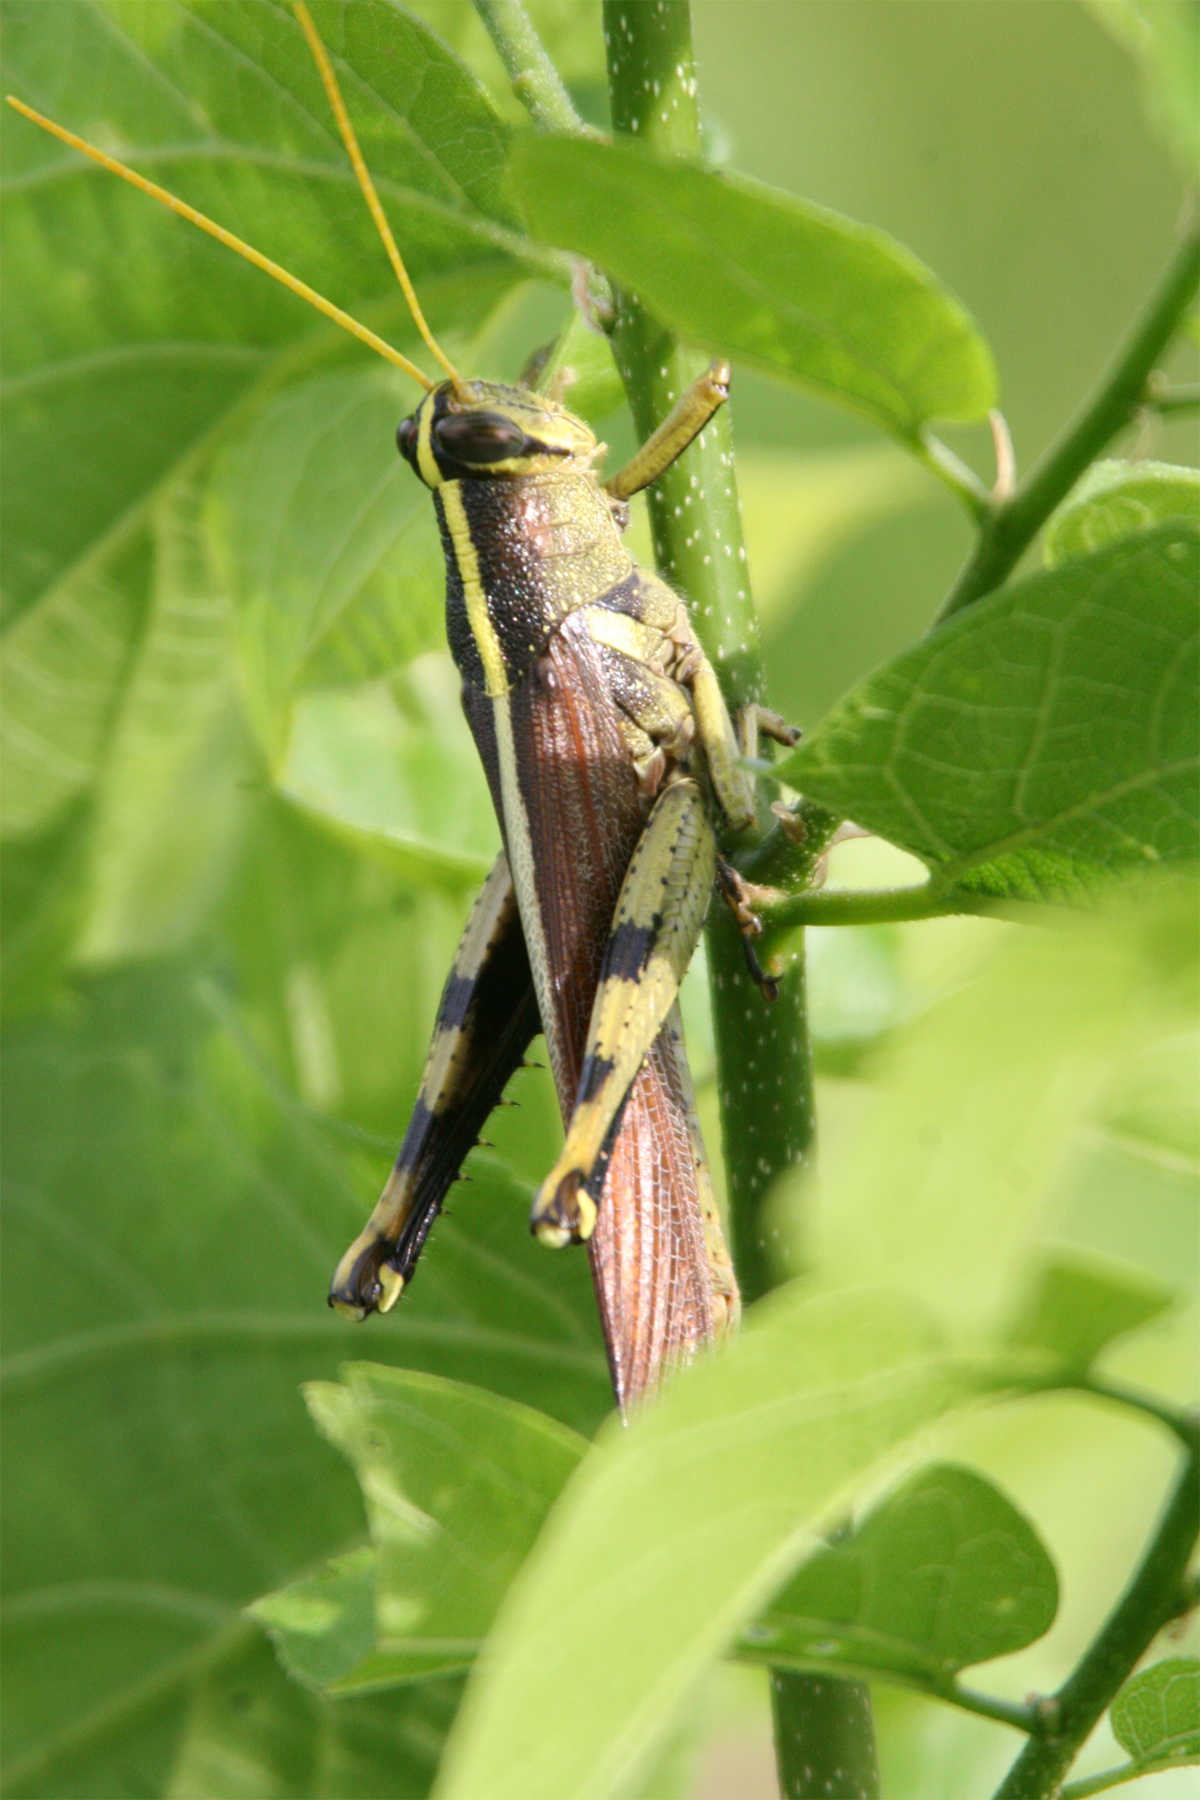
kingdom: Animalia
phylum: Arthropoda
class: Insecta
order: Orthoptera
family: Acrididae
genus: Schistocerca
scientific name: Schistocerca obscura
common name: Obscure bird grasshopper
